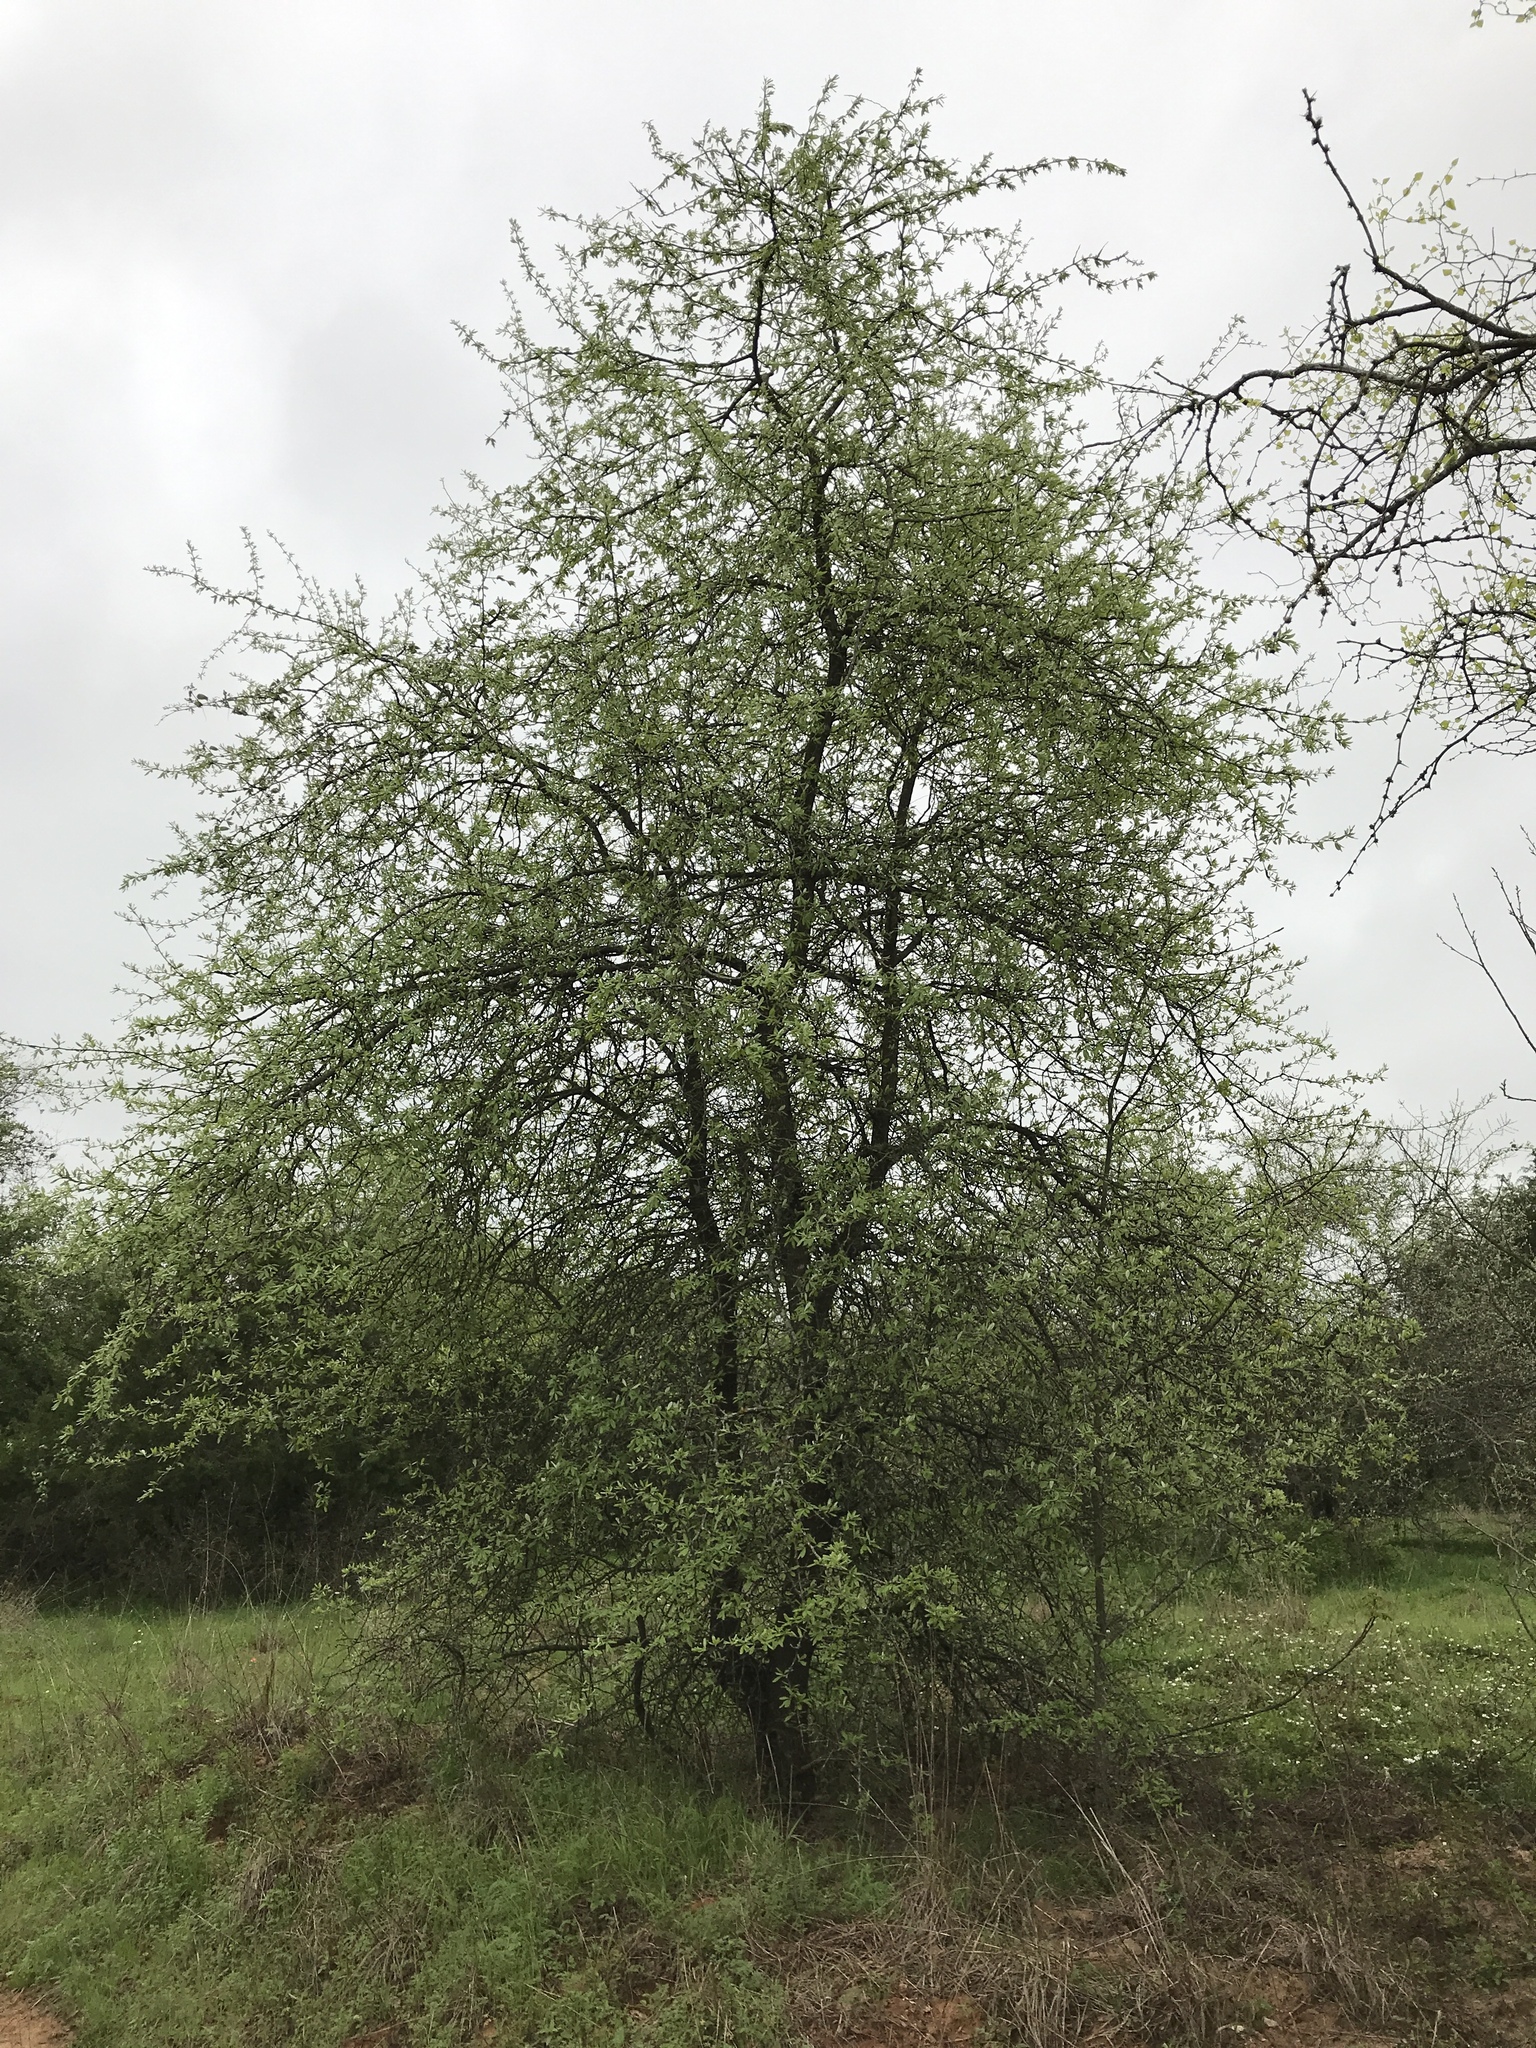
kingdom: Plantae
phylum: Tracheophyta
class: Magnoliopsida
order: Ericales
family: Sapotaceae
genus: Sideroxylon
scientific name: Sideroxylon lanuginosum
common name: Chittamwood
